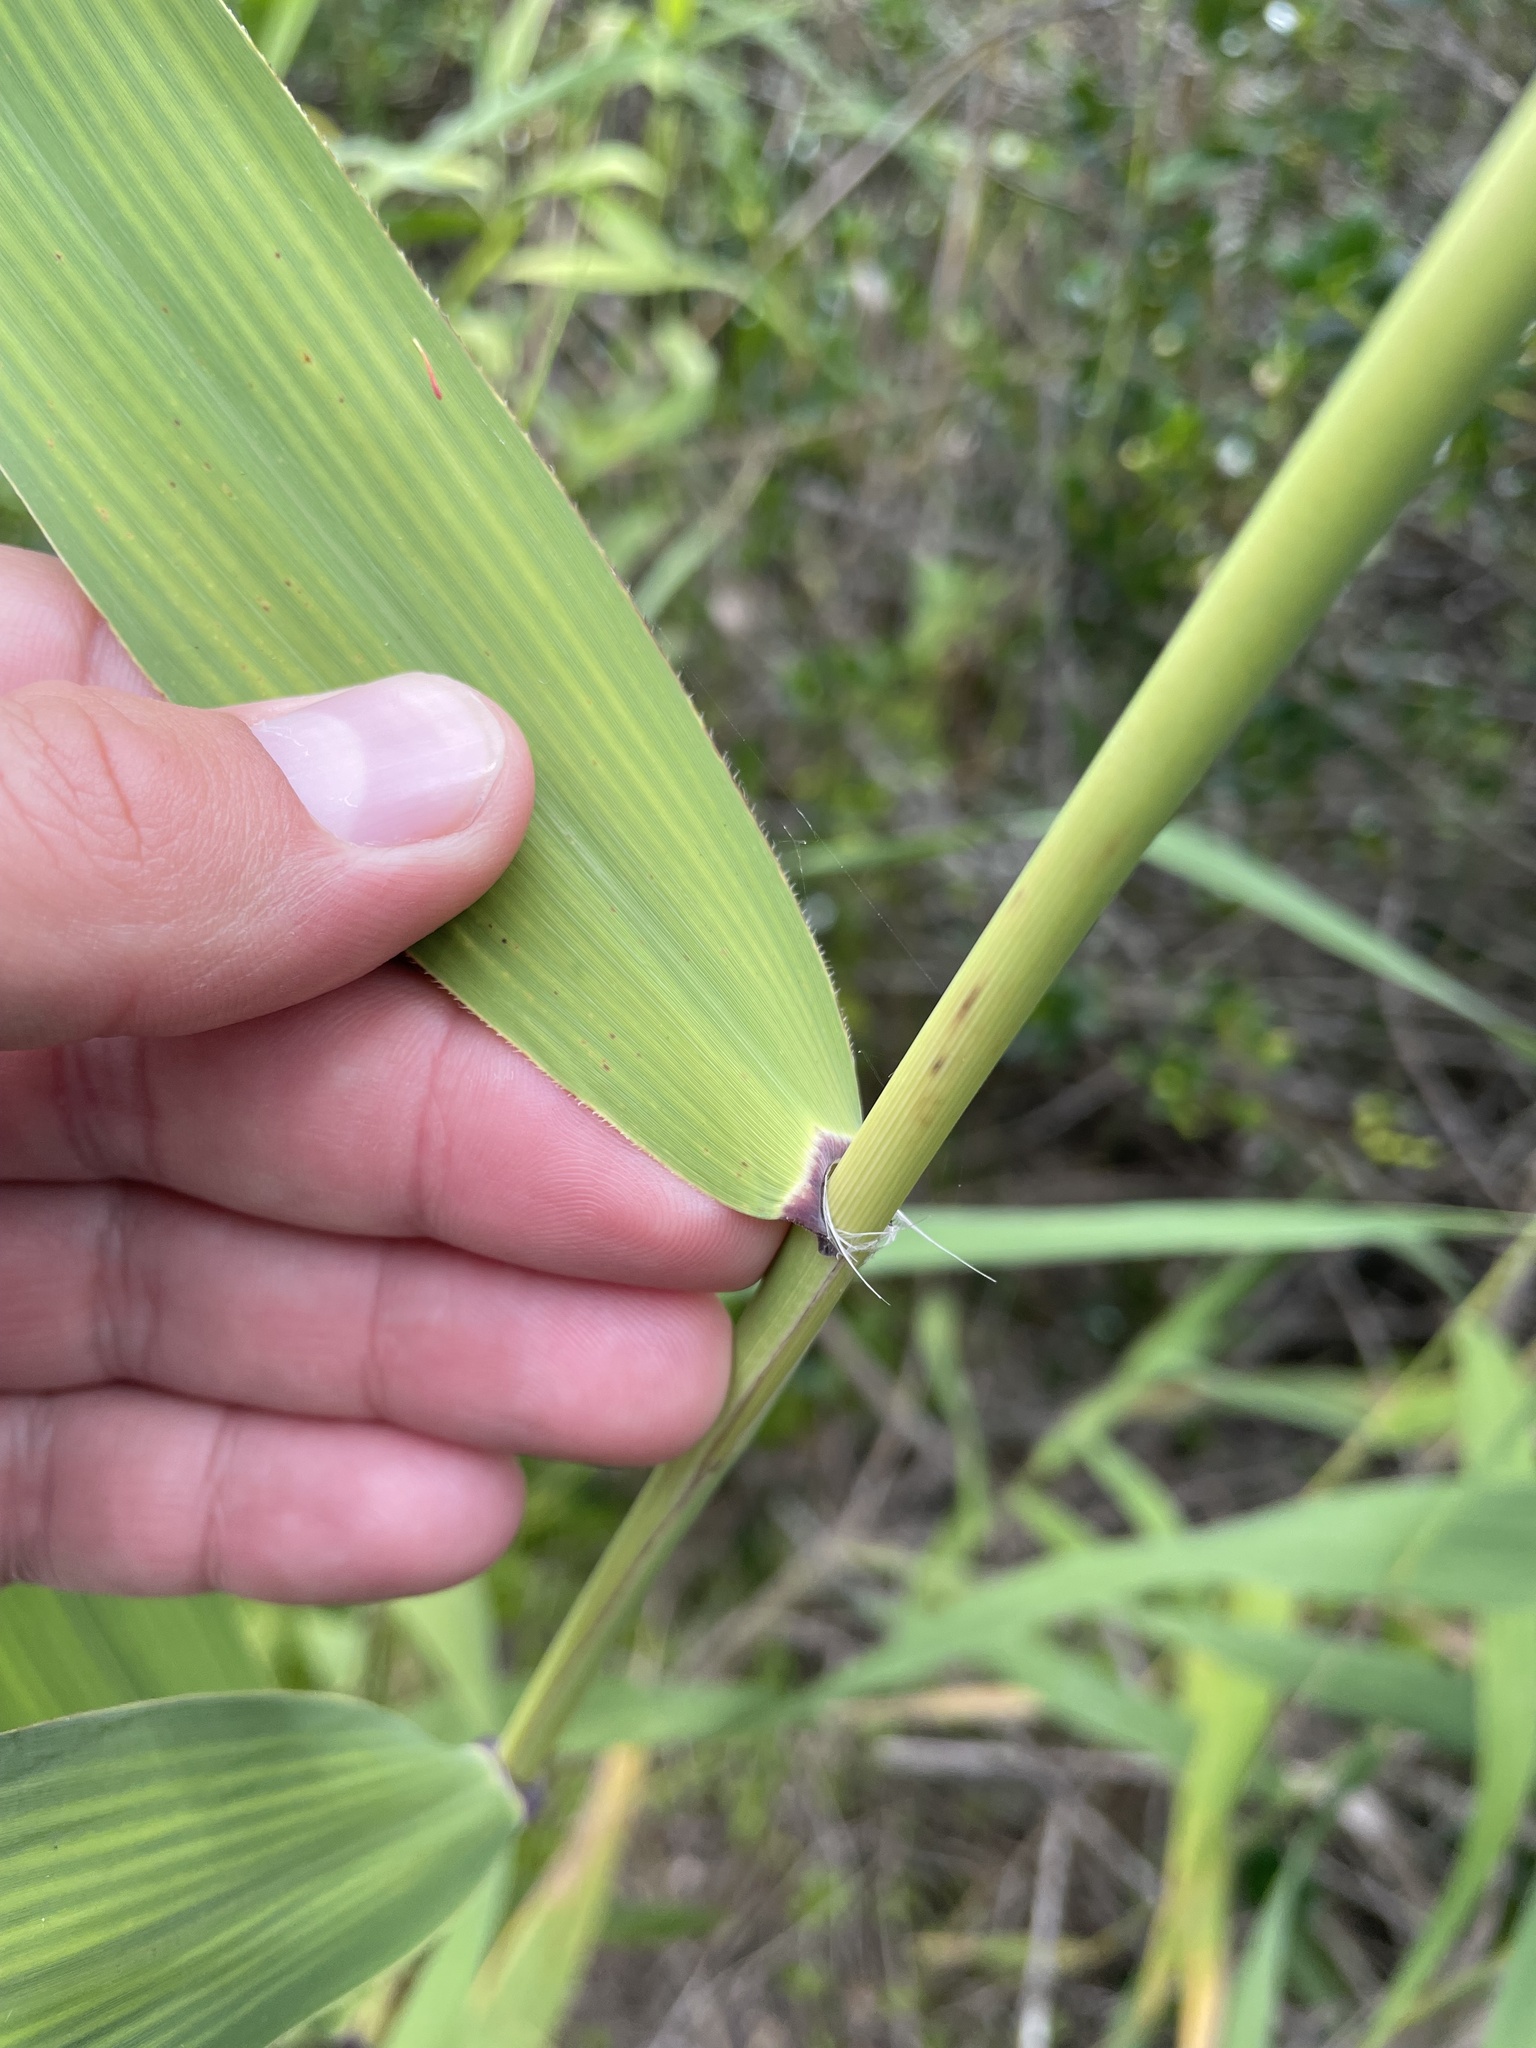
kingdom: Plantae
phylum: Tracheophyta
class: Liliopsida
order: Poales
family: Poaceae
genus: Phragmites
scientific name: Phragmites australis
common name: Common reed
